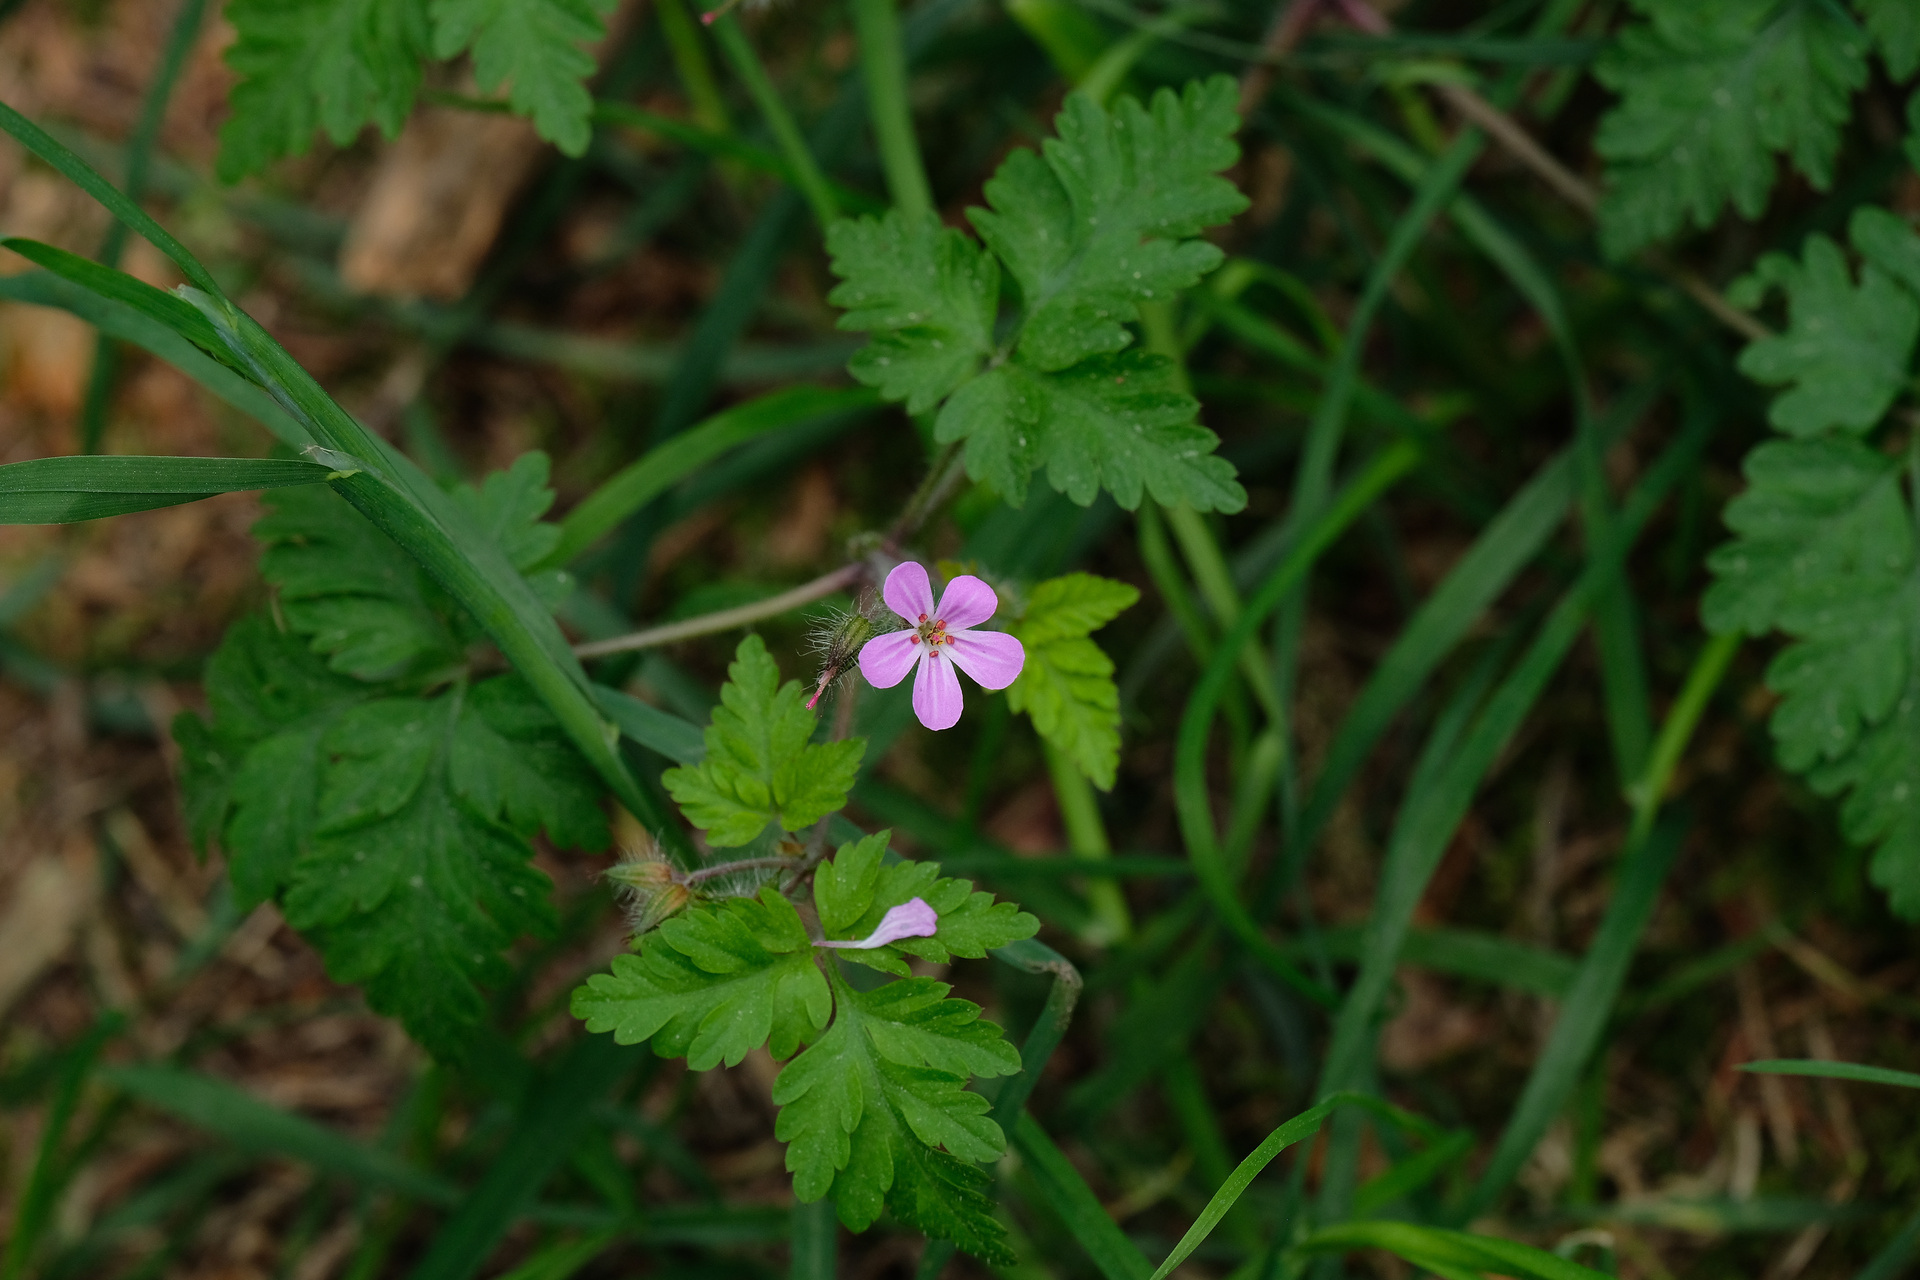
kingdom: Plantae
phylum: Tracheophyta
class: Magnoliopsida
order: Geraniales
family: Geraniaceae
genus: Geranium
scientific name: Geranium robertianum
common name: Herb-robert
